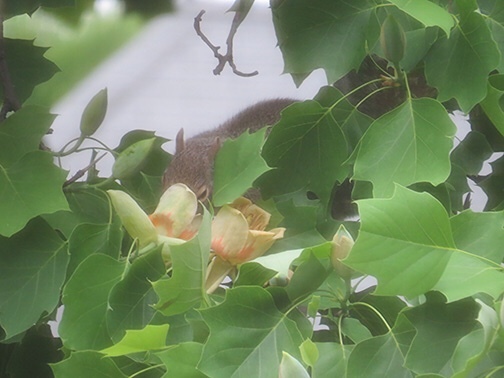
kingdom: Animalia
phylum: Chordata
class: Mammalia
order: Rodentia
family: Sciuridae
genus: Sciurus
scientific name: Sciurus carolinensis
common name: Eastern gray squirrel
